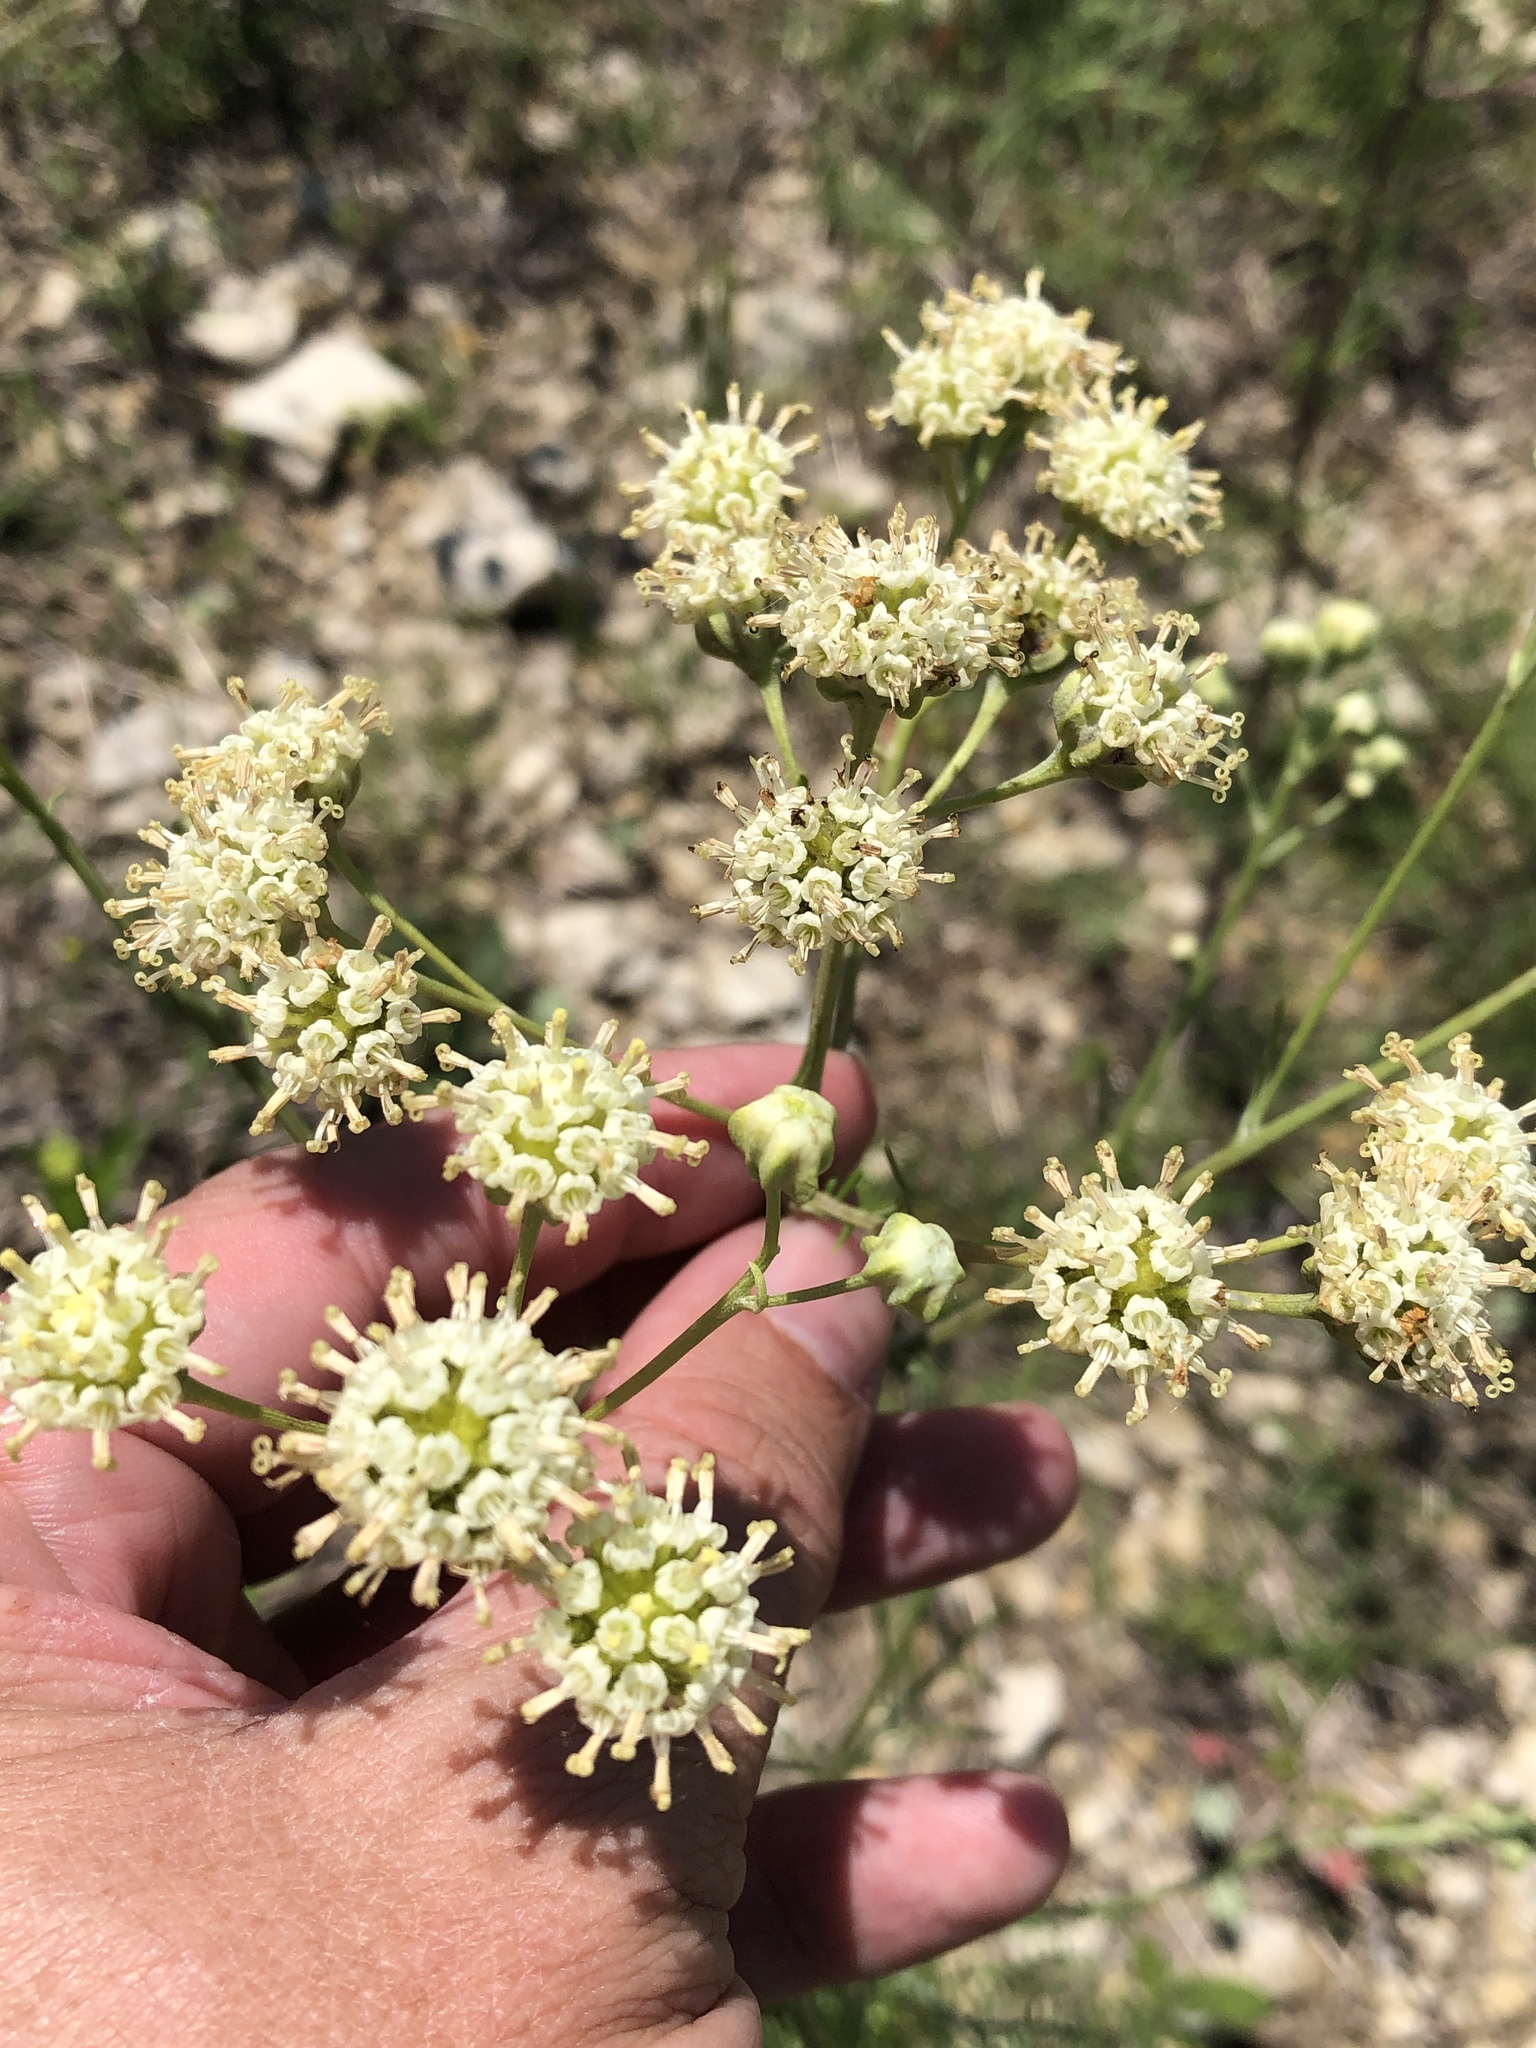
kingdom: Plantae
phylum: Tracheophyta
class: Magnoliopsida
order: Asterales
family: Asteraceae
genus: Hymenopappus
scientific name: Hymenopappus scabiosaeus
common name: Carolina woollywhite
